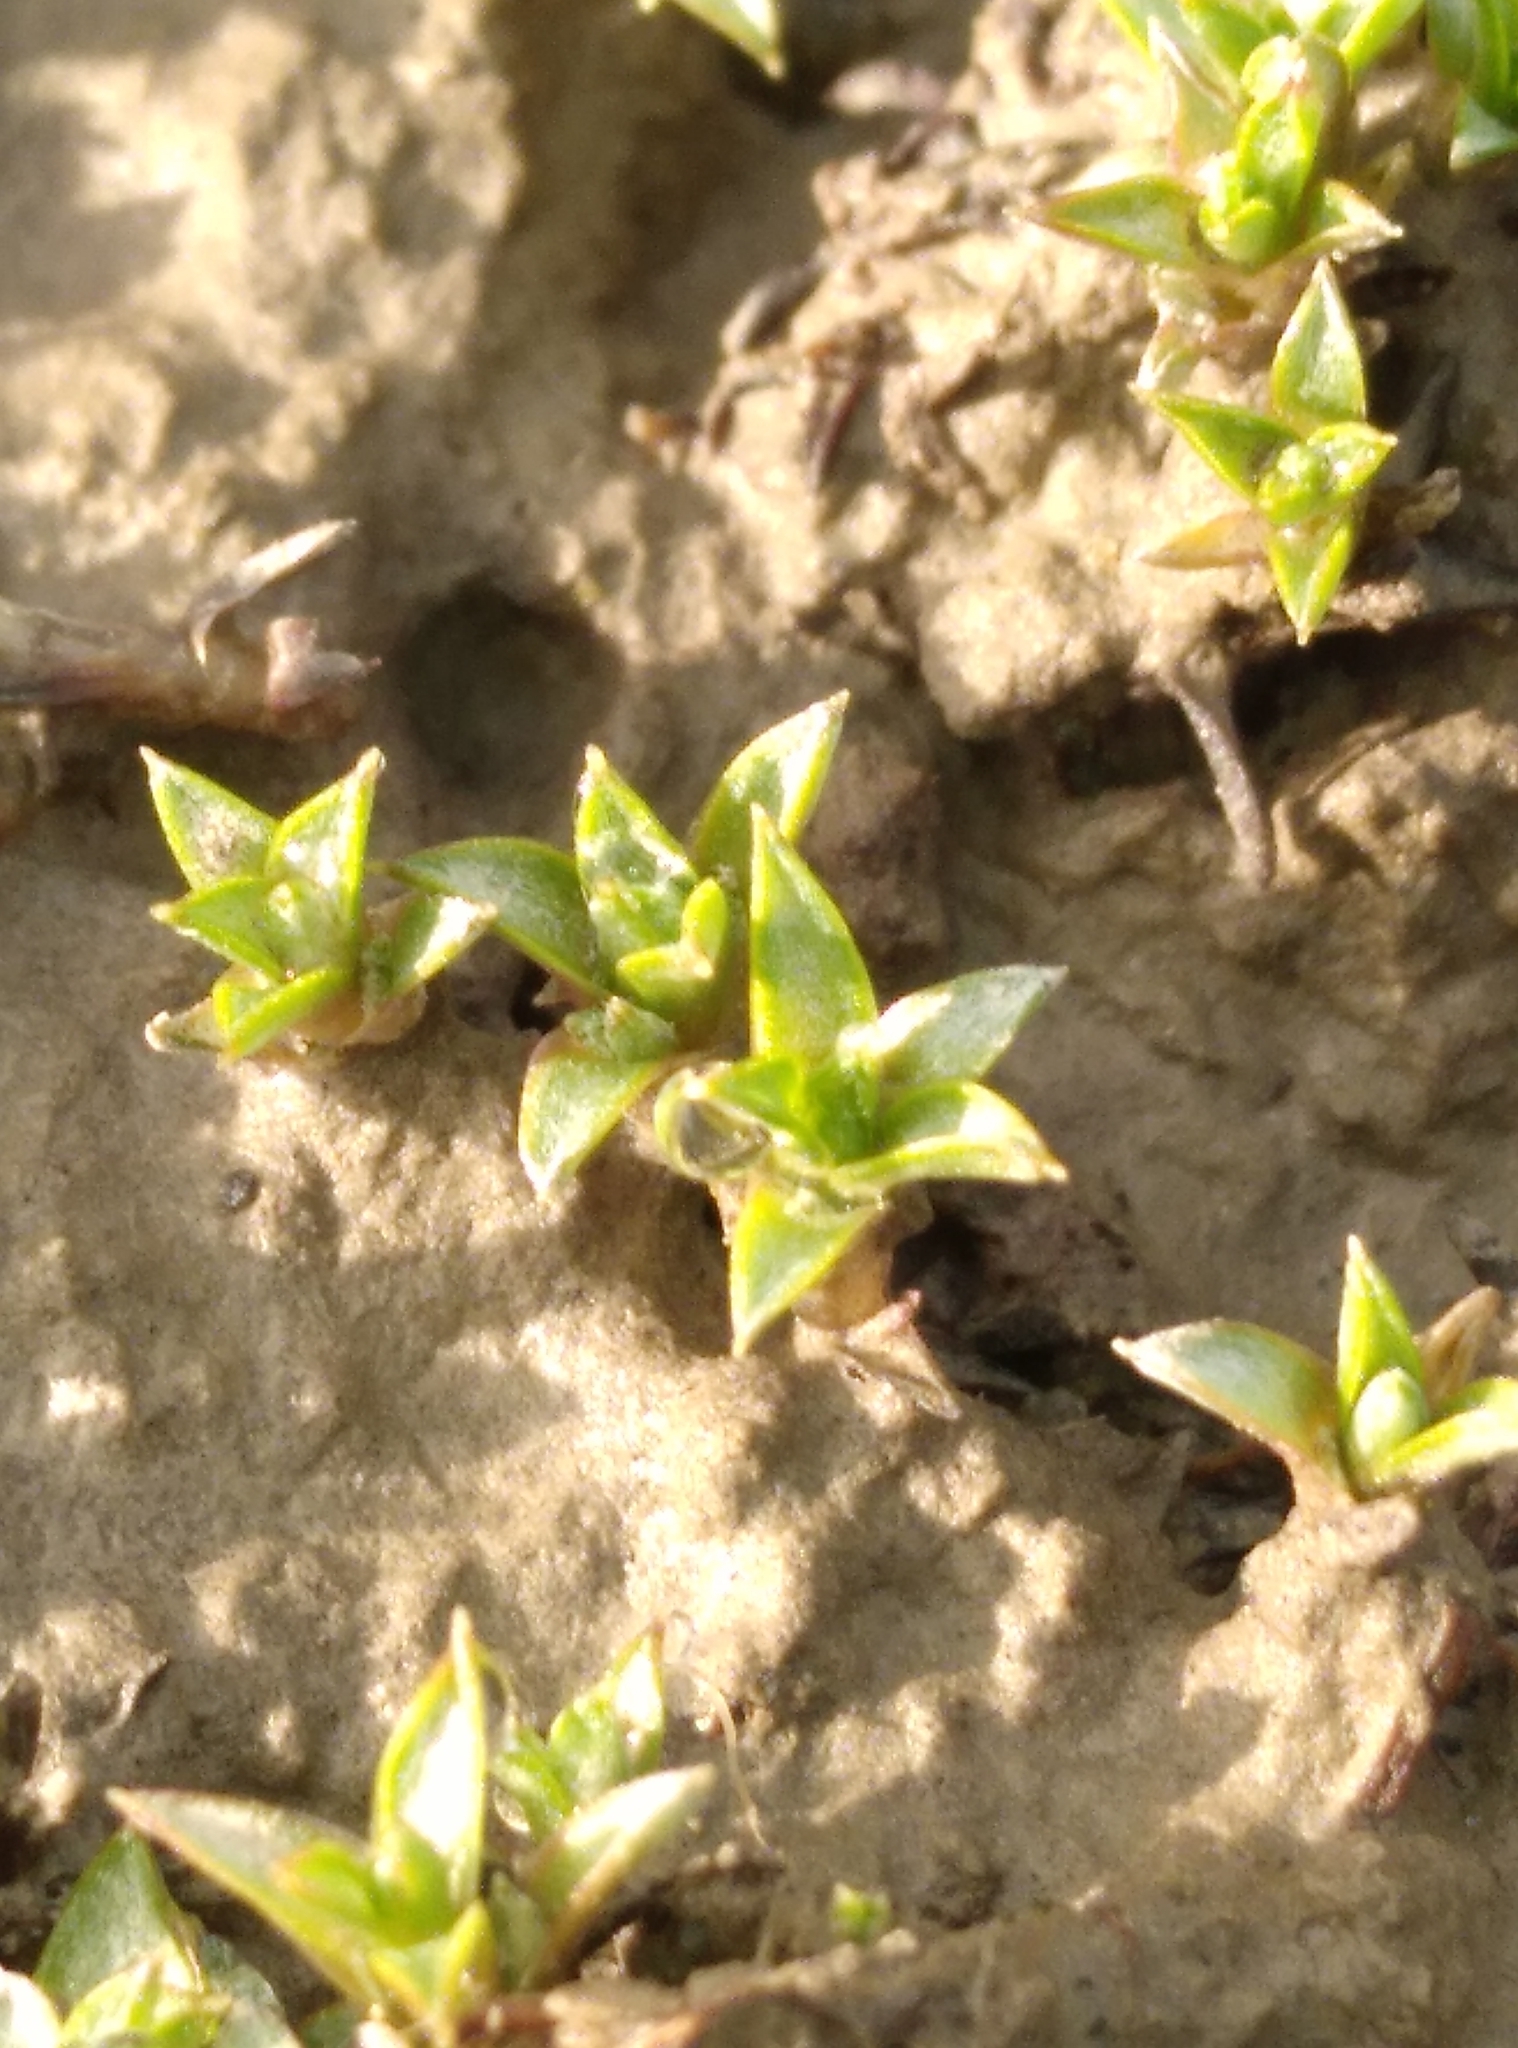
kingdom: Plantae
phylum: Tracheophyta
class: Magnoliopsida
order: Asterales
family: Asteraceae
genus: Raoulia
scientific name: Raoulia tenuicaulis
